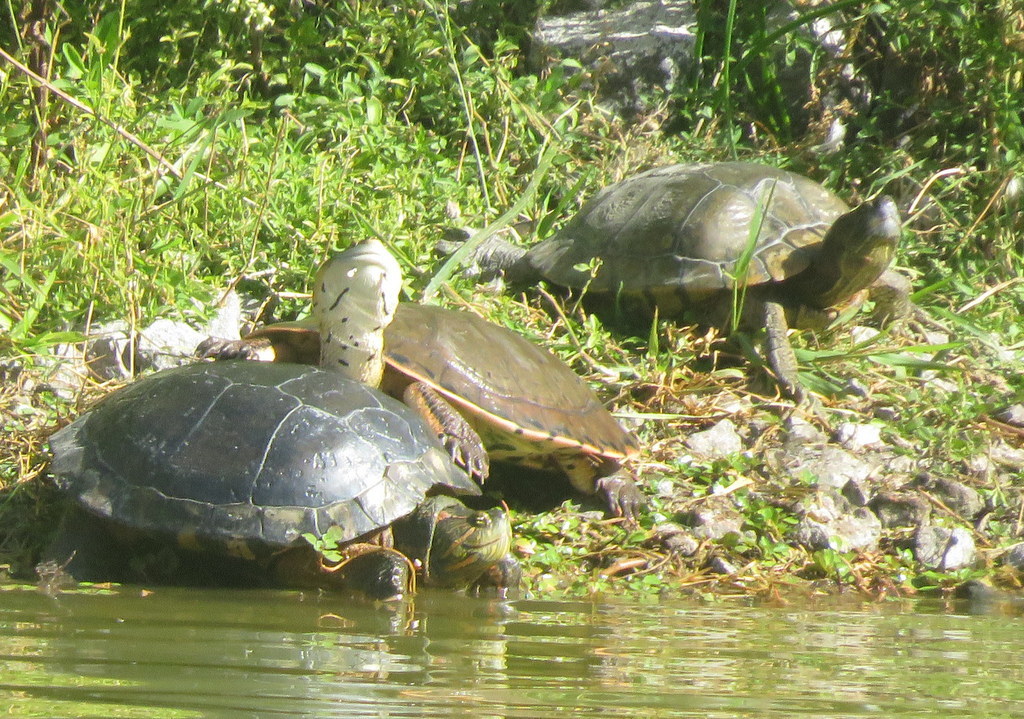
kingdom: Animalia
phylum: Chordata
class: Testudines
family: Emydidae
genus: Trachemys
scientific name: Trachemys dorbigni
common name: Black-bellied slider
